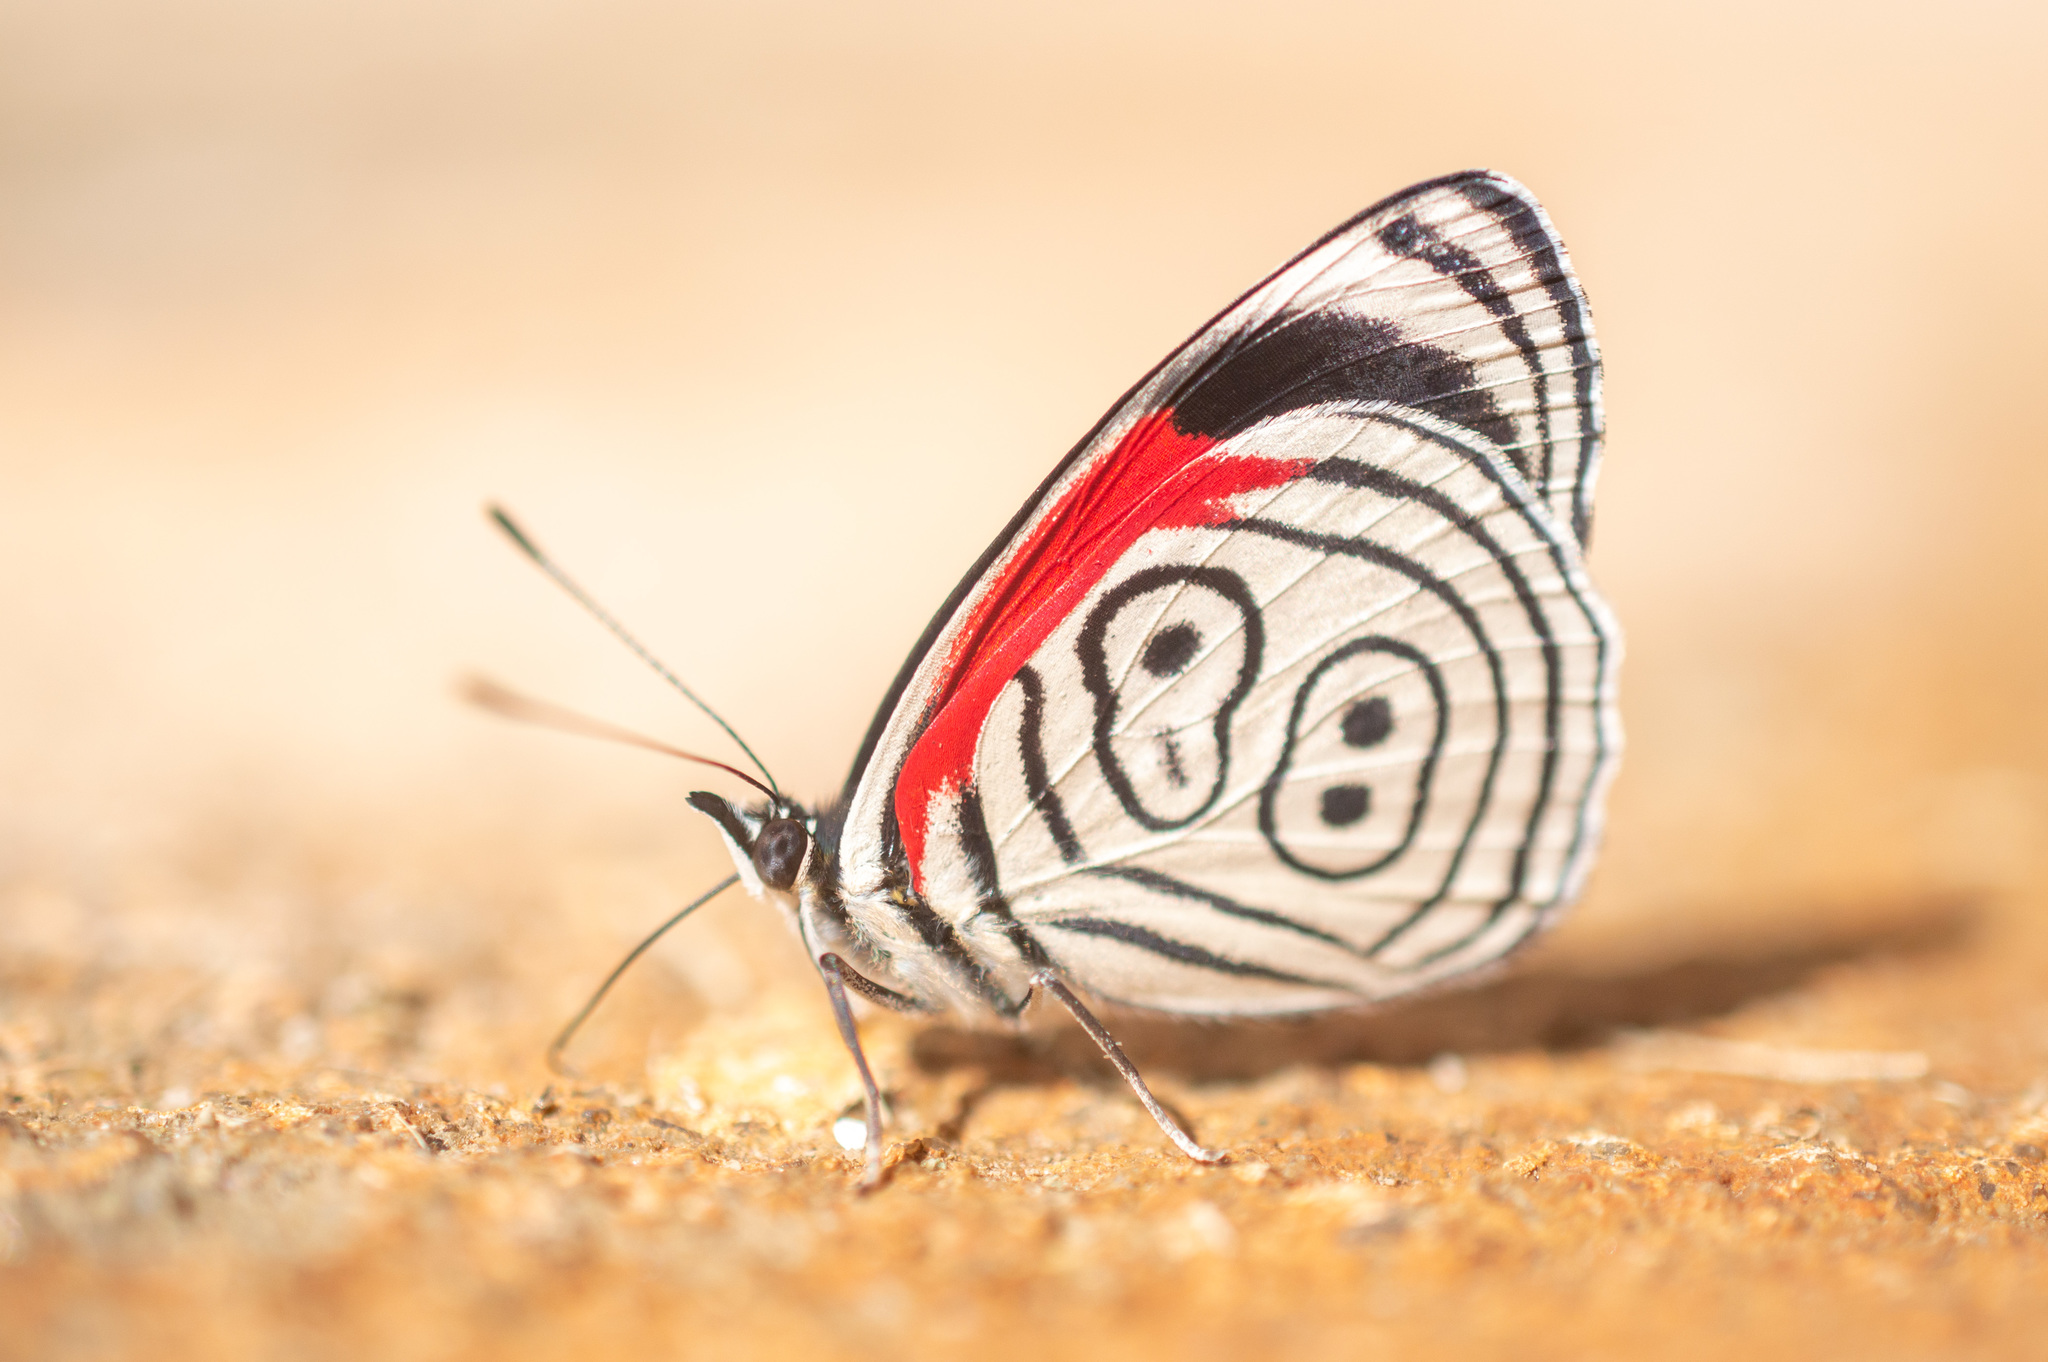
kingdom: Animalia
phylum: Arthropoda
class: Insecta
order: Lepidoptera
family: Nymphalidae
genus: Diaethria
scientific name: Diaethria clymena
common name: Widespread eighty-eight
